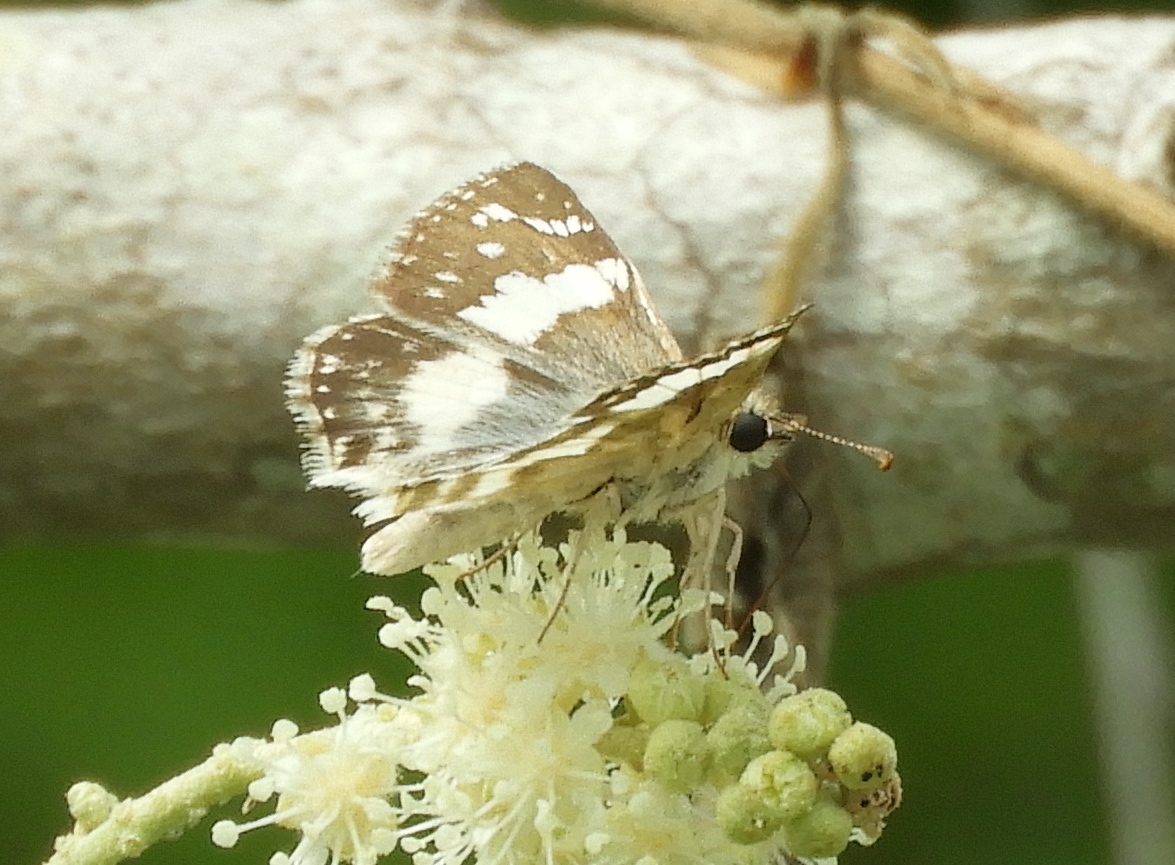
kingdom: Animalia
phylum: Arthropoda
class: Insecta
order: Lepidoptera
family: Hesperiidae
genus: Heliopyrgus
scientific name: Heliopyrgus domicella
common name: Erichson's white skipper
